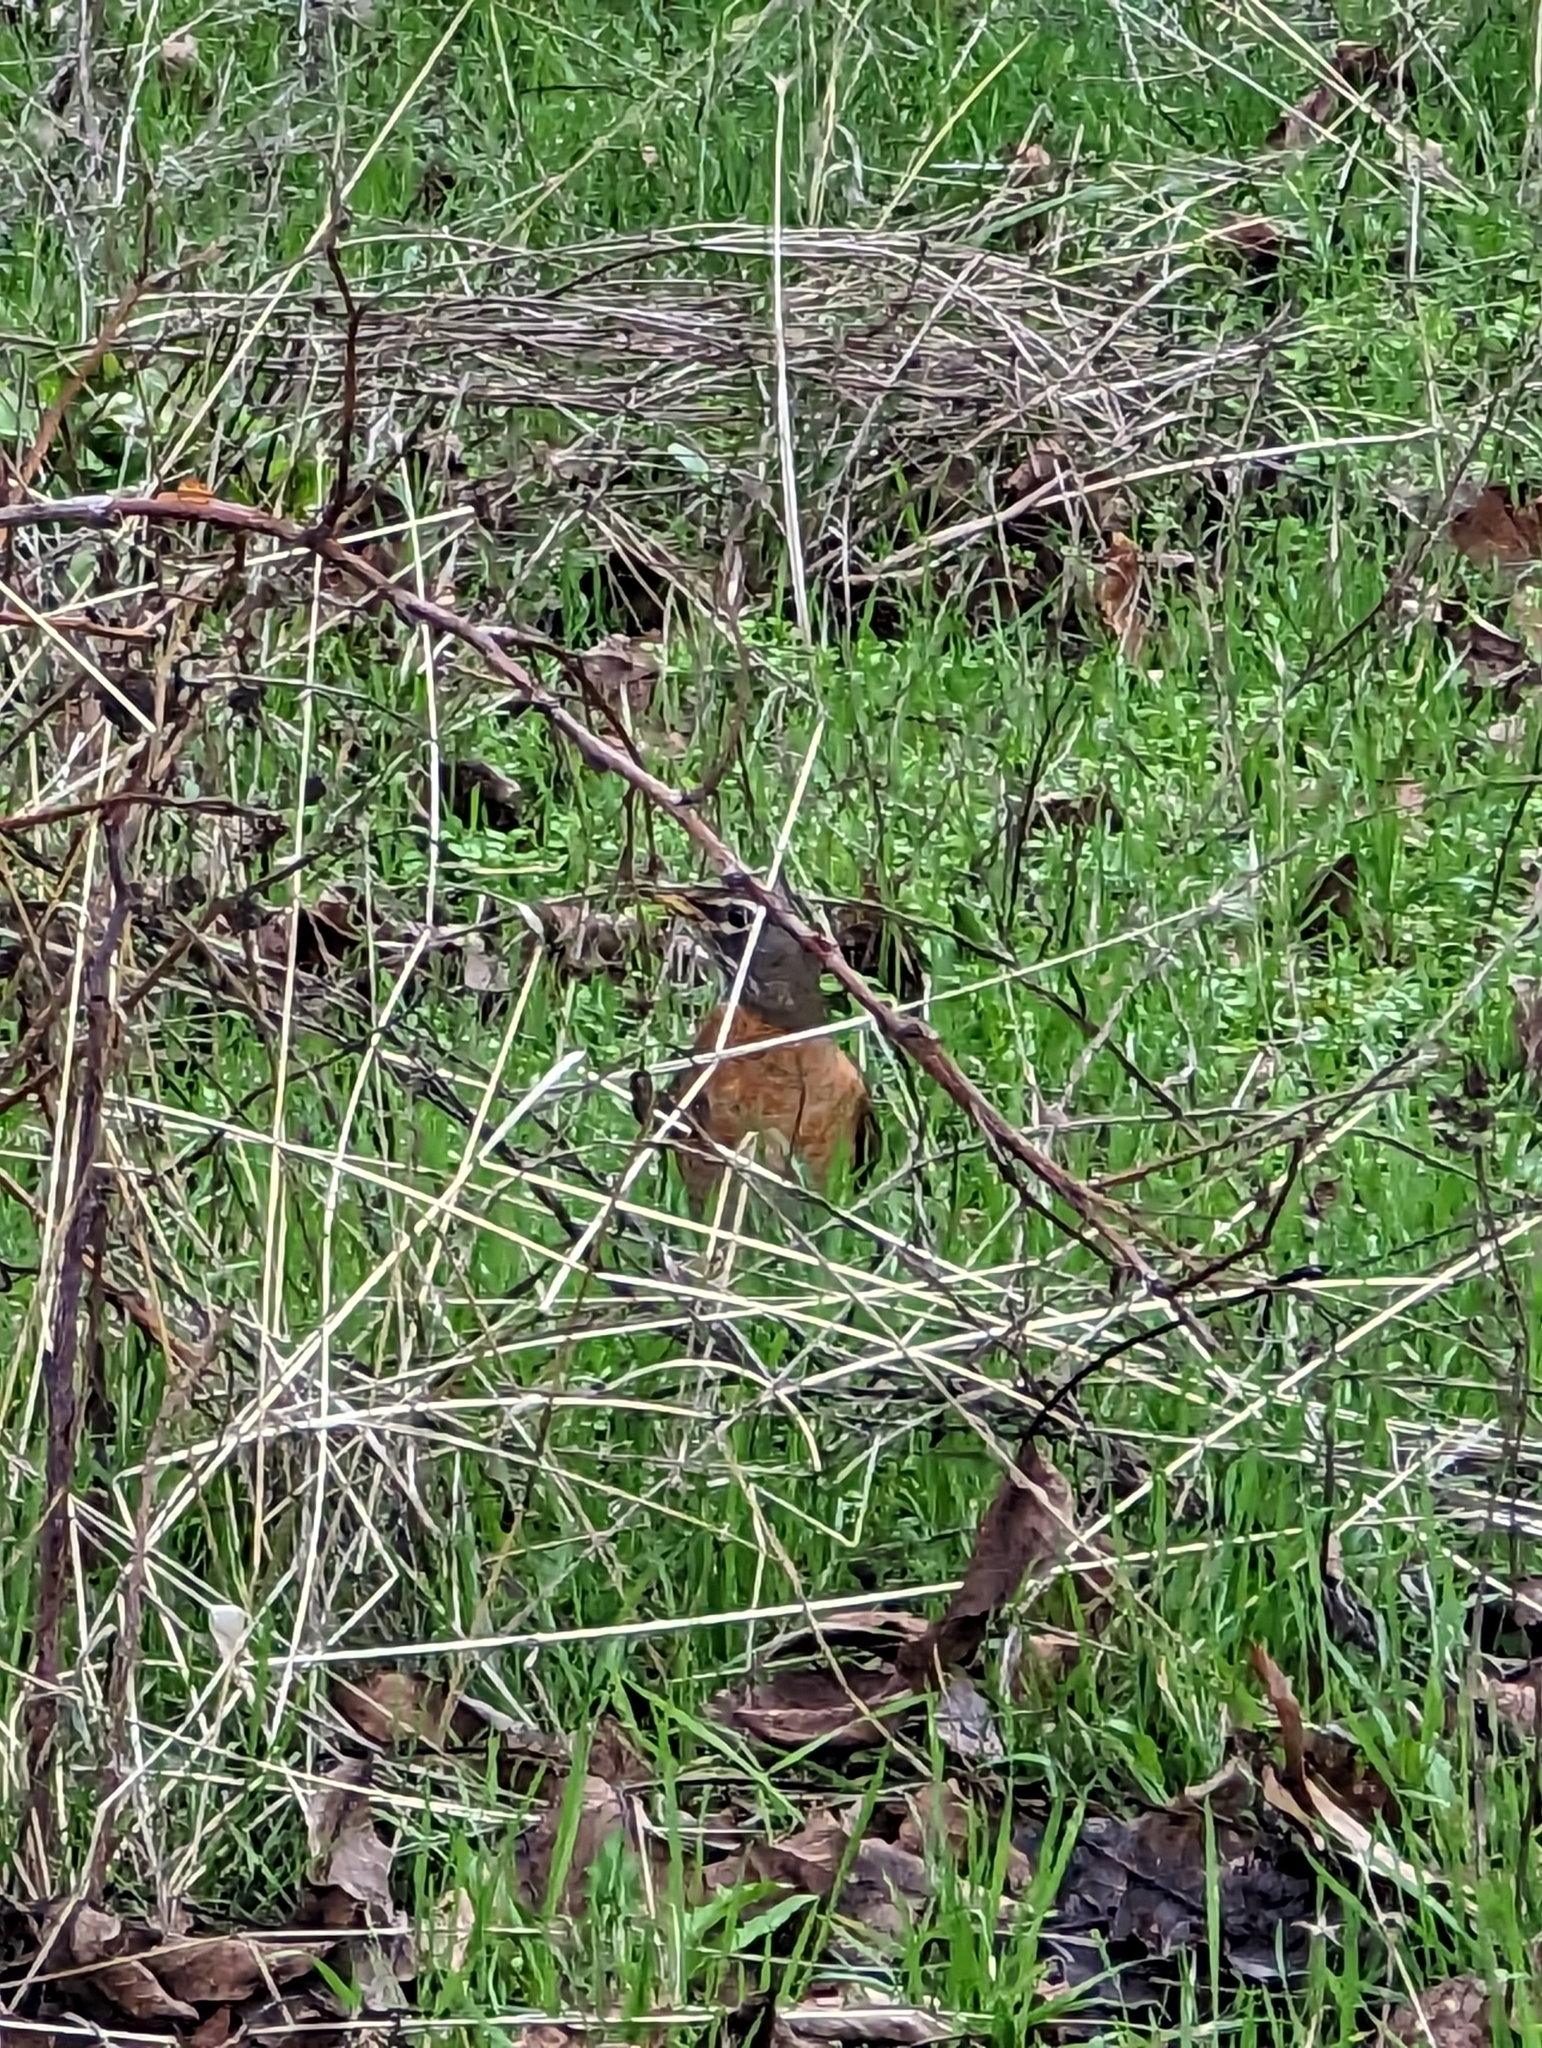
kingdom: Animalia
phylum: Chordata
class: Aves
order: Passeriformes
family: Turdidae
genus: Turdus
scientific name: Turdus migratorius
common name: American robin
